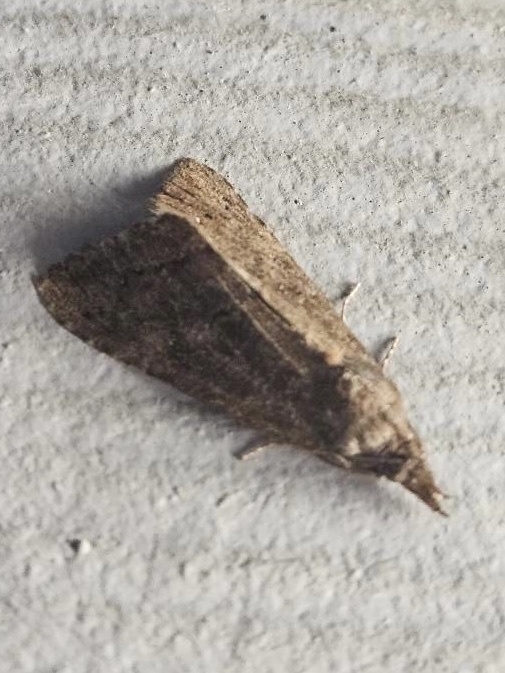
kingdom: Animalia
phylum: Arthropoda
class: Insecta
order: Lepidoptera
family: Erebidae
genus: Hypena
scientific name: Hypena scabra
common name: Green cloverworm
